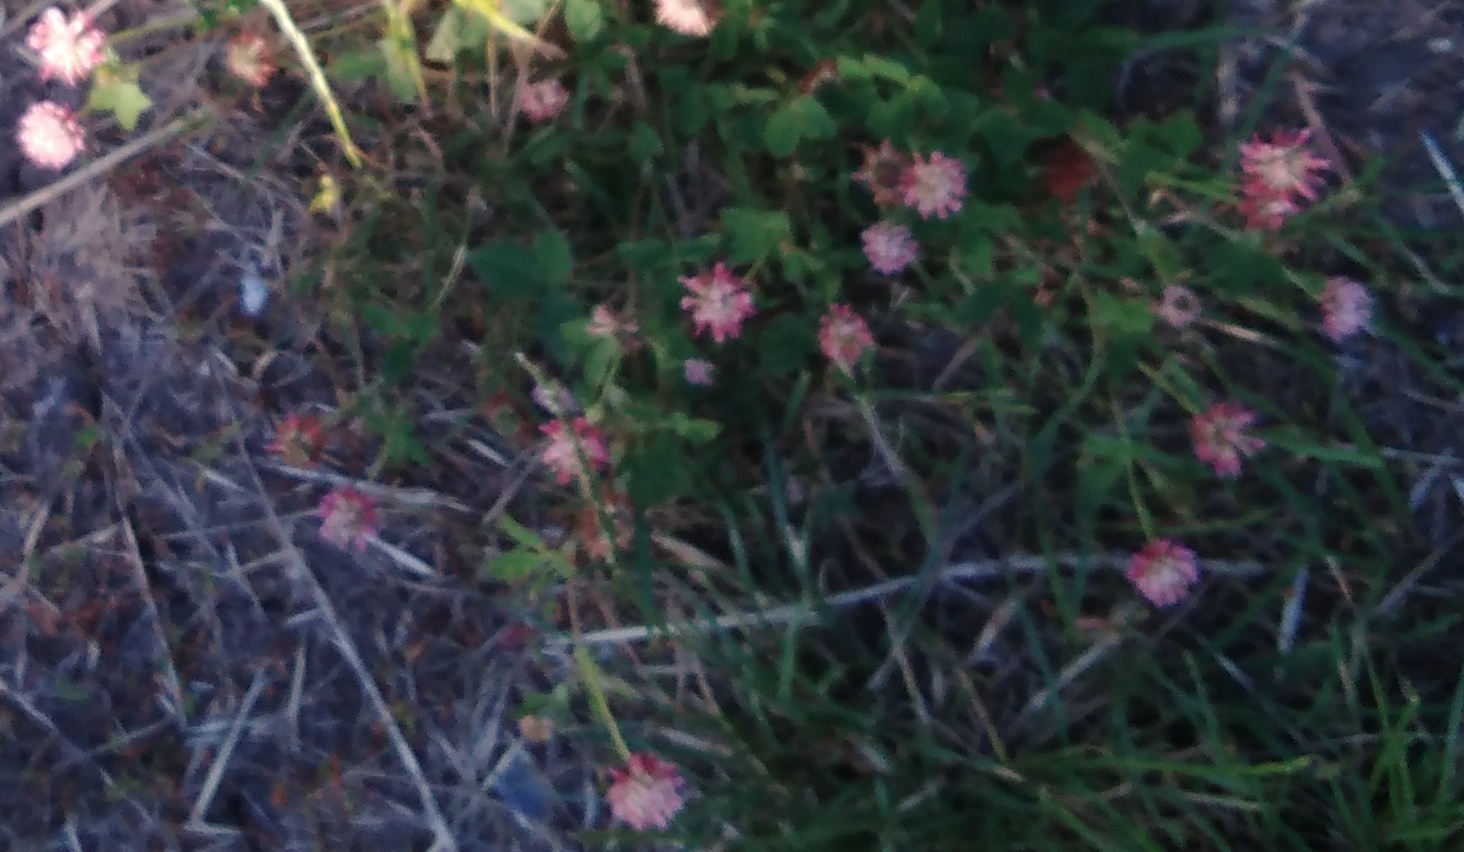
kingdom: Plantae
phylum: Tracheophyta
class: Magnoliopsida
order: Fabales
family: Fabaceae
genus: Trifolium
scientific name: Trifolium hybridum
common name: Alsike clover
